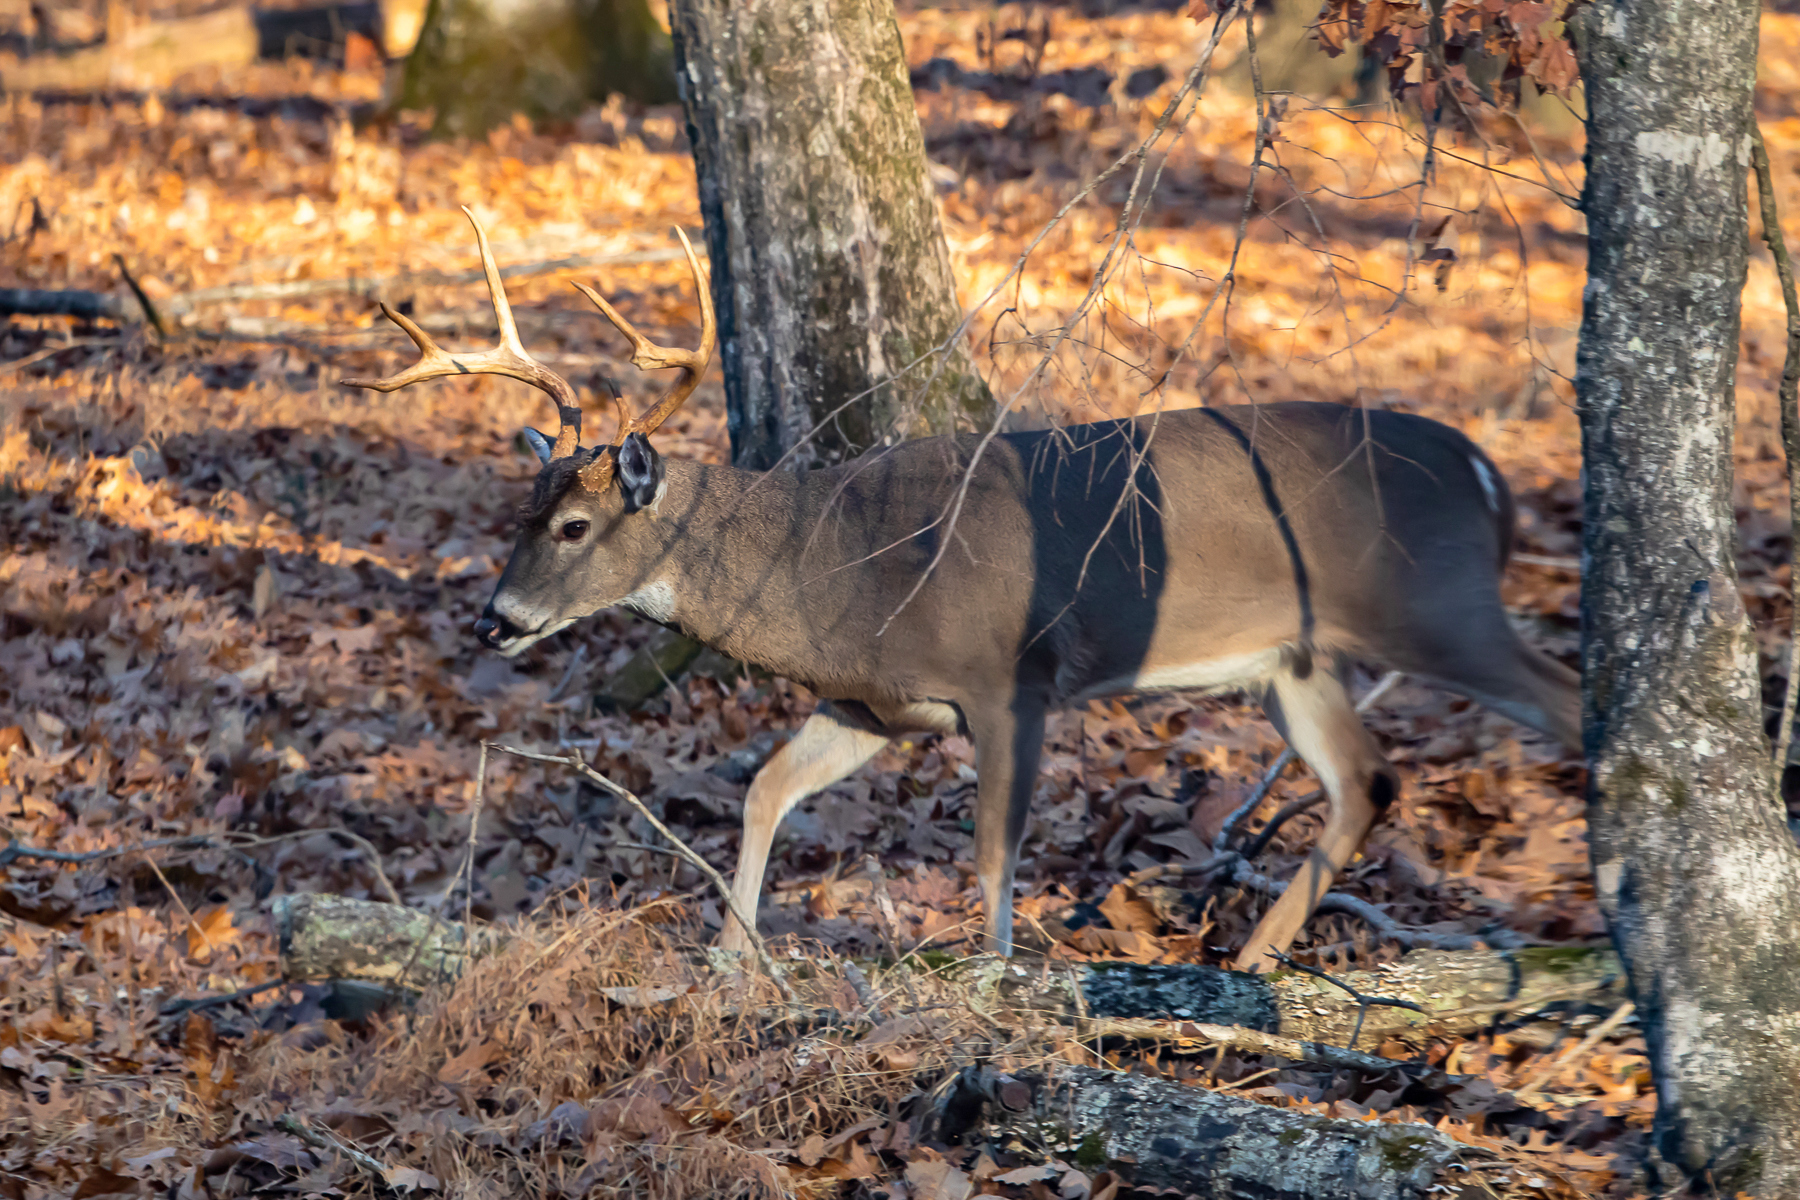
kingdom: Animalia
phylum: Chordata
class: Mammalia
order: Artiodactyla
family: Cervidae
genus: Odocoileus
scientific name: Odocoileus virginianus
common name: White-tailed deer
